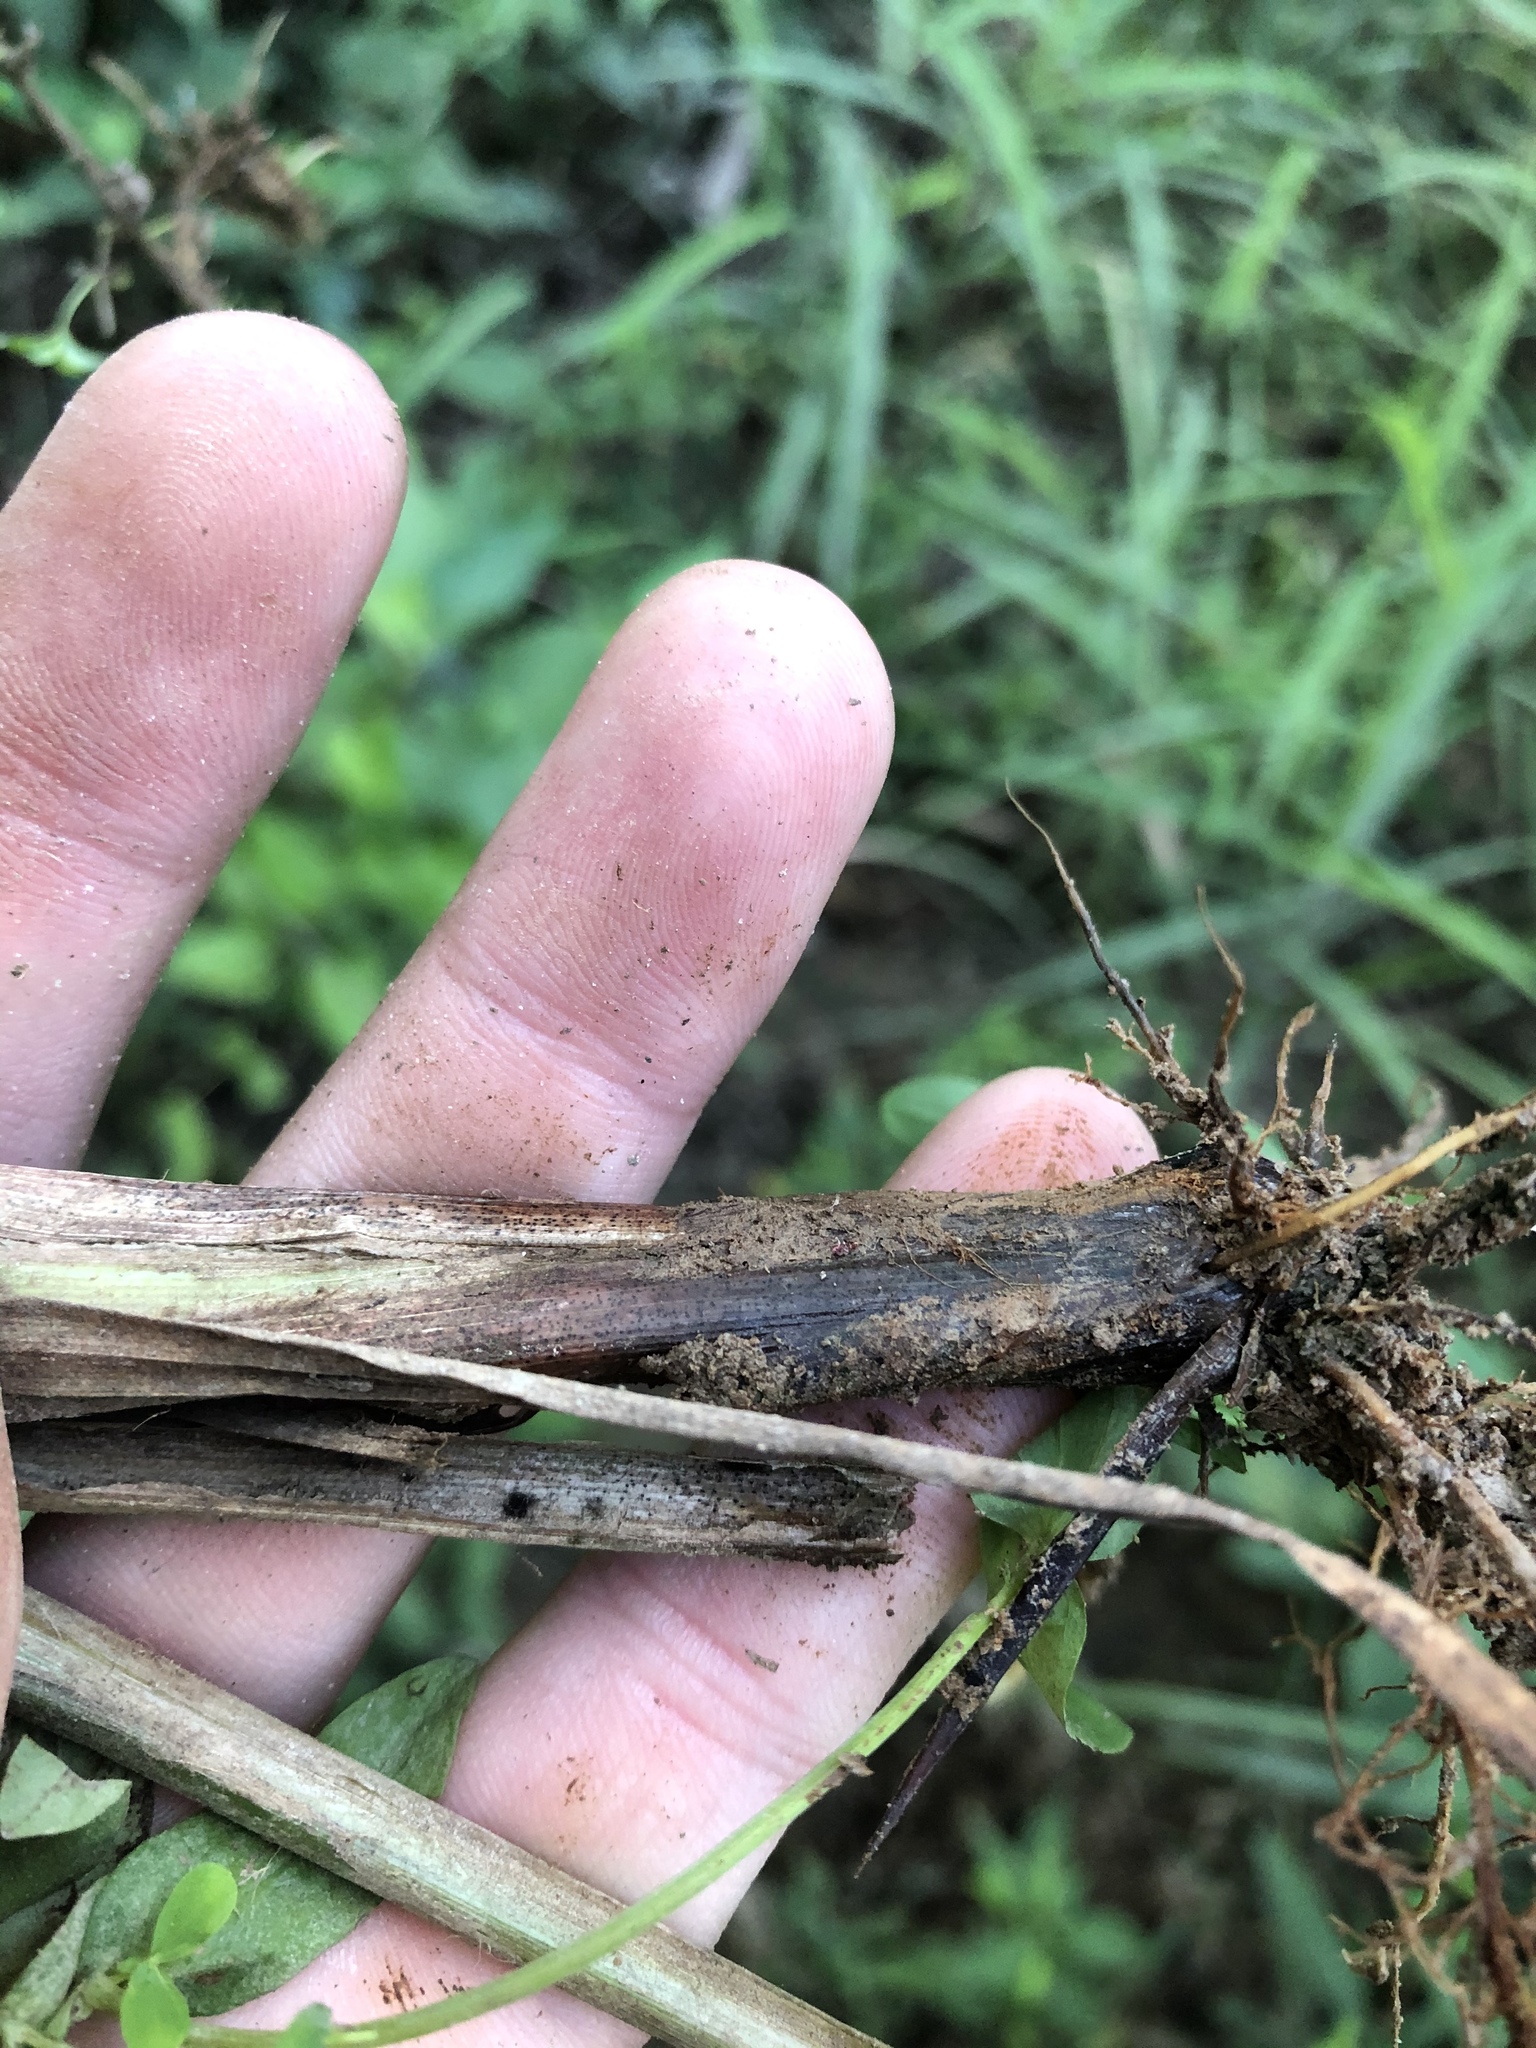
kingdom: Plantae
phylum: Tracheophyta
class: Liliopsida
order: Poales
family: Cyperaceae
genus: Carex
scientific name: Carex lupulina
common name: Hop sedge
